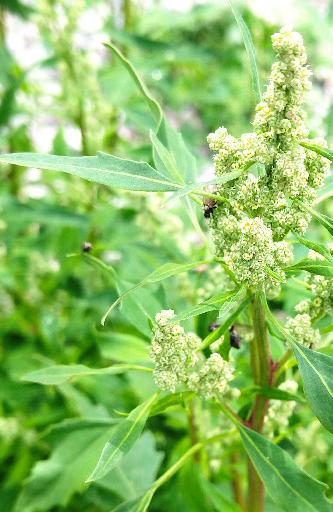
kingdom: Plantae
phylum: Tracheophyta
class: Magnoliopsida
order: Caryophyllales
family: Amaranthaceae
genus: Chenopodium
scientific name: Chenopodium album
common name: Fat-hen
